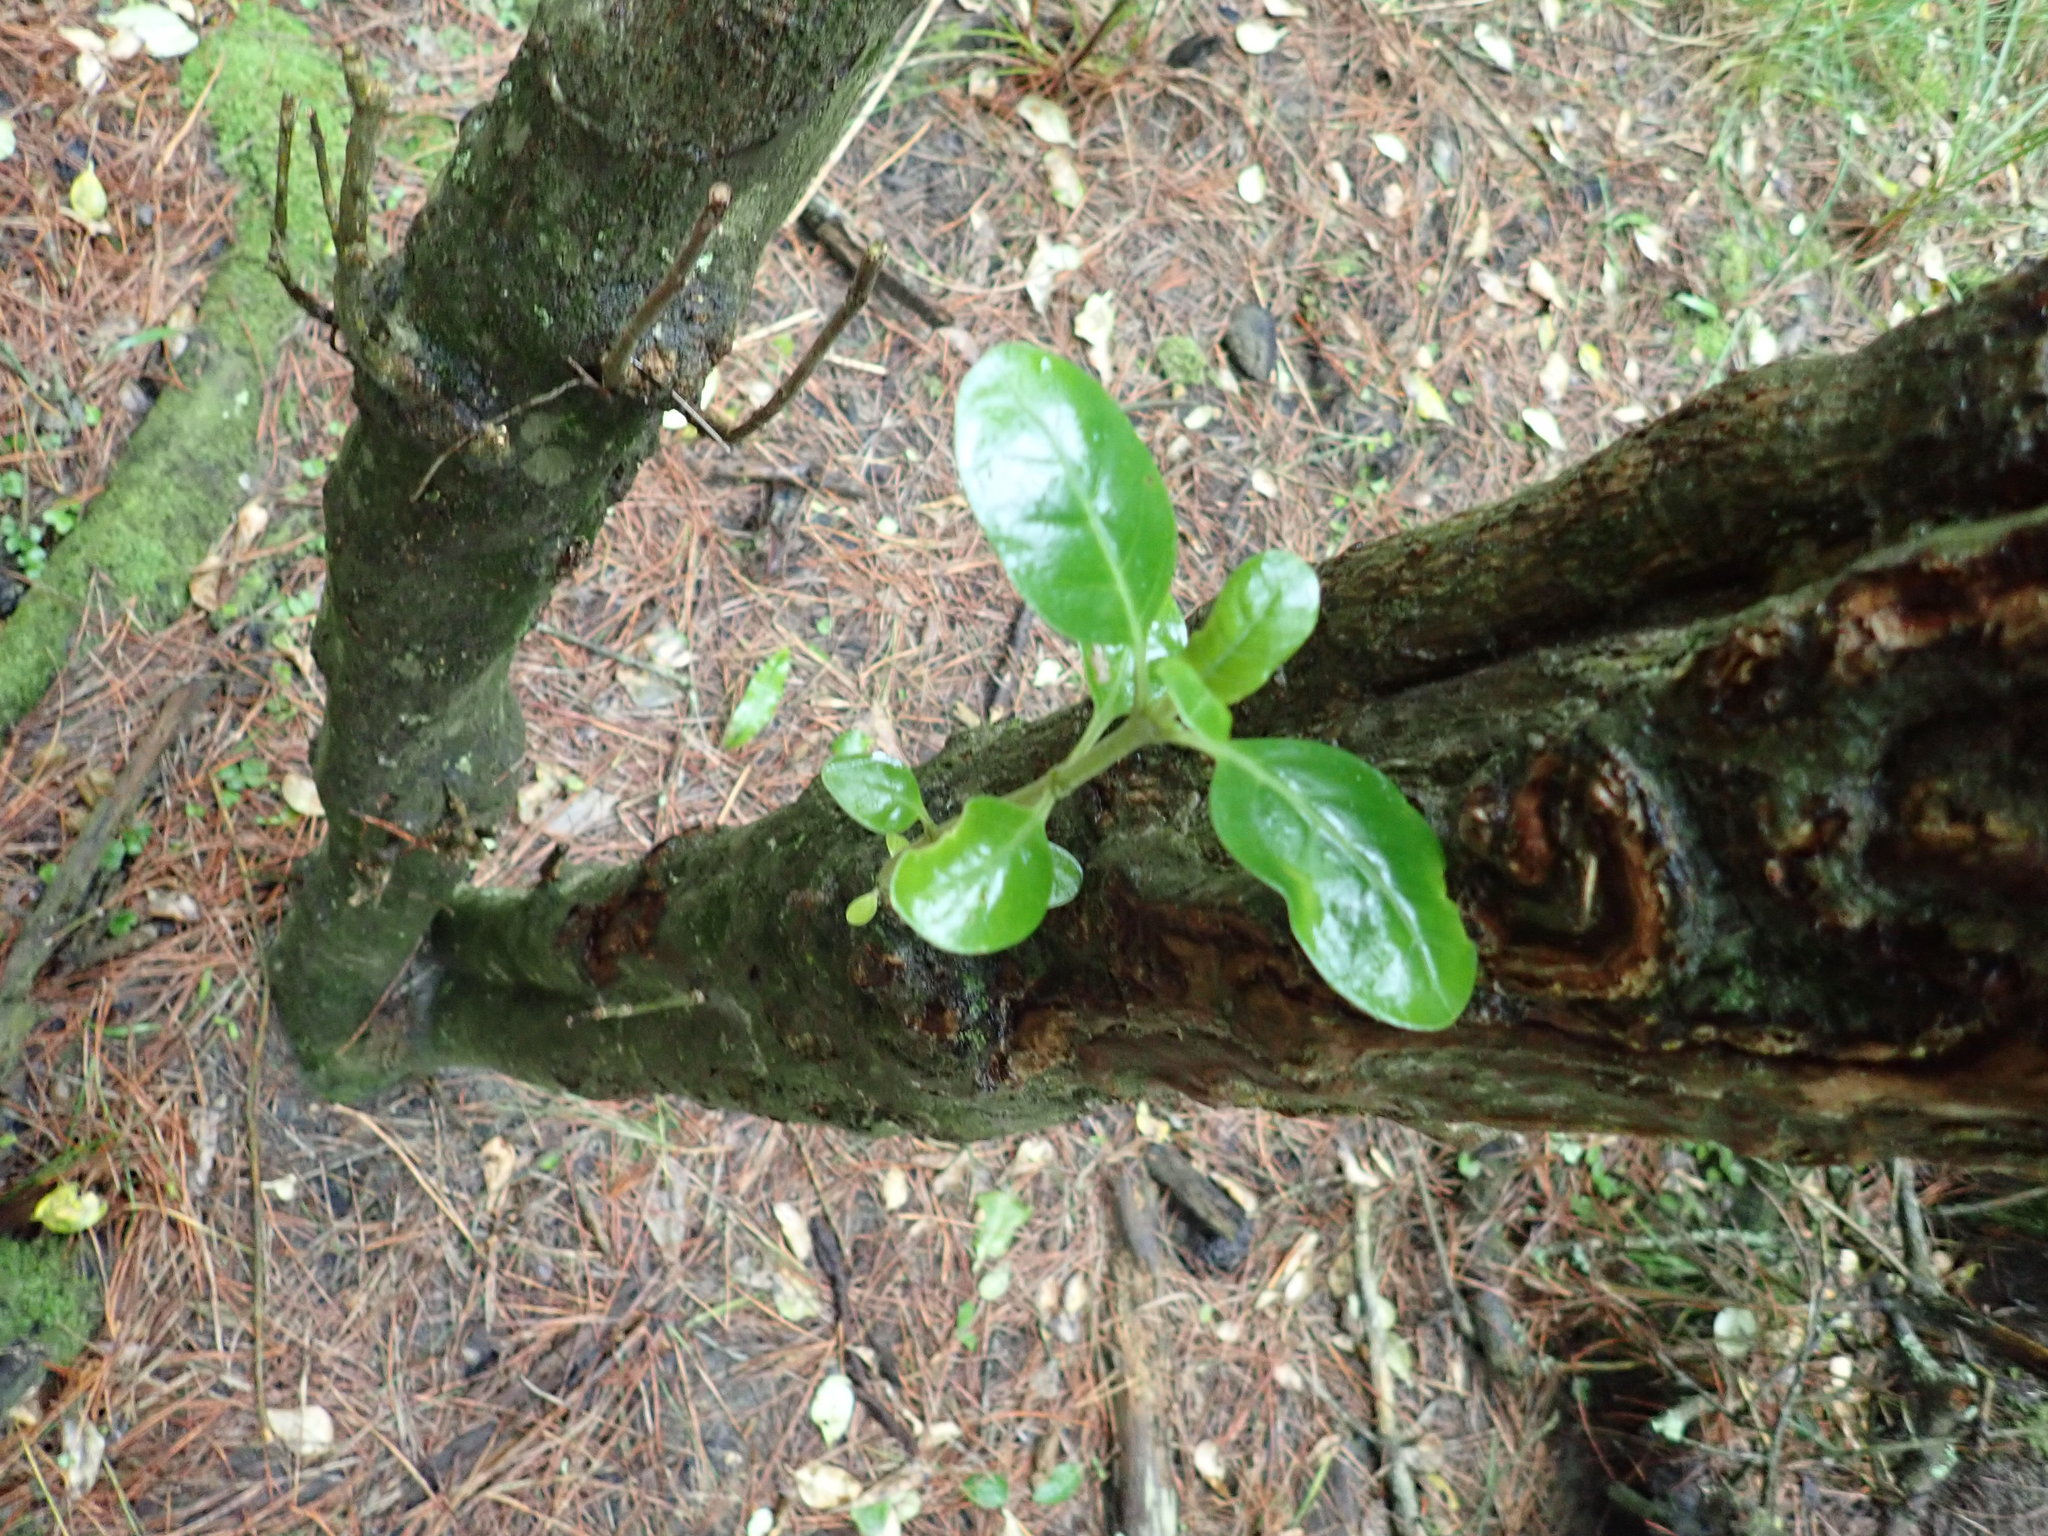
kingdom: Plantae
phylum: Tracheophyta
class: Magnoliopsida
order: Gentianales
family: Rubiaceae
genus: Coprosma
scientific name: Coprosma repens
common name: Tree bedstraw
